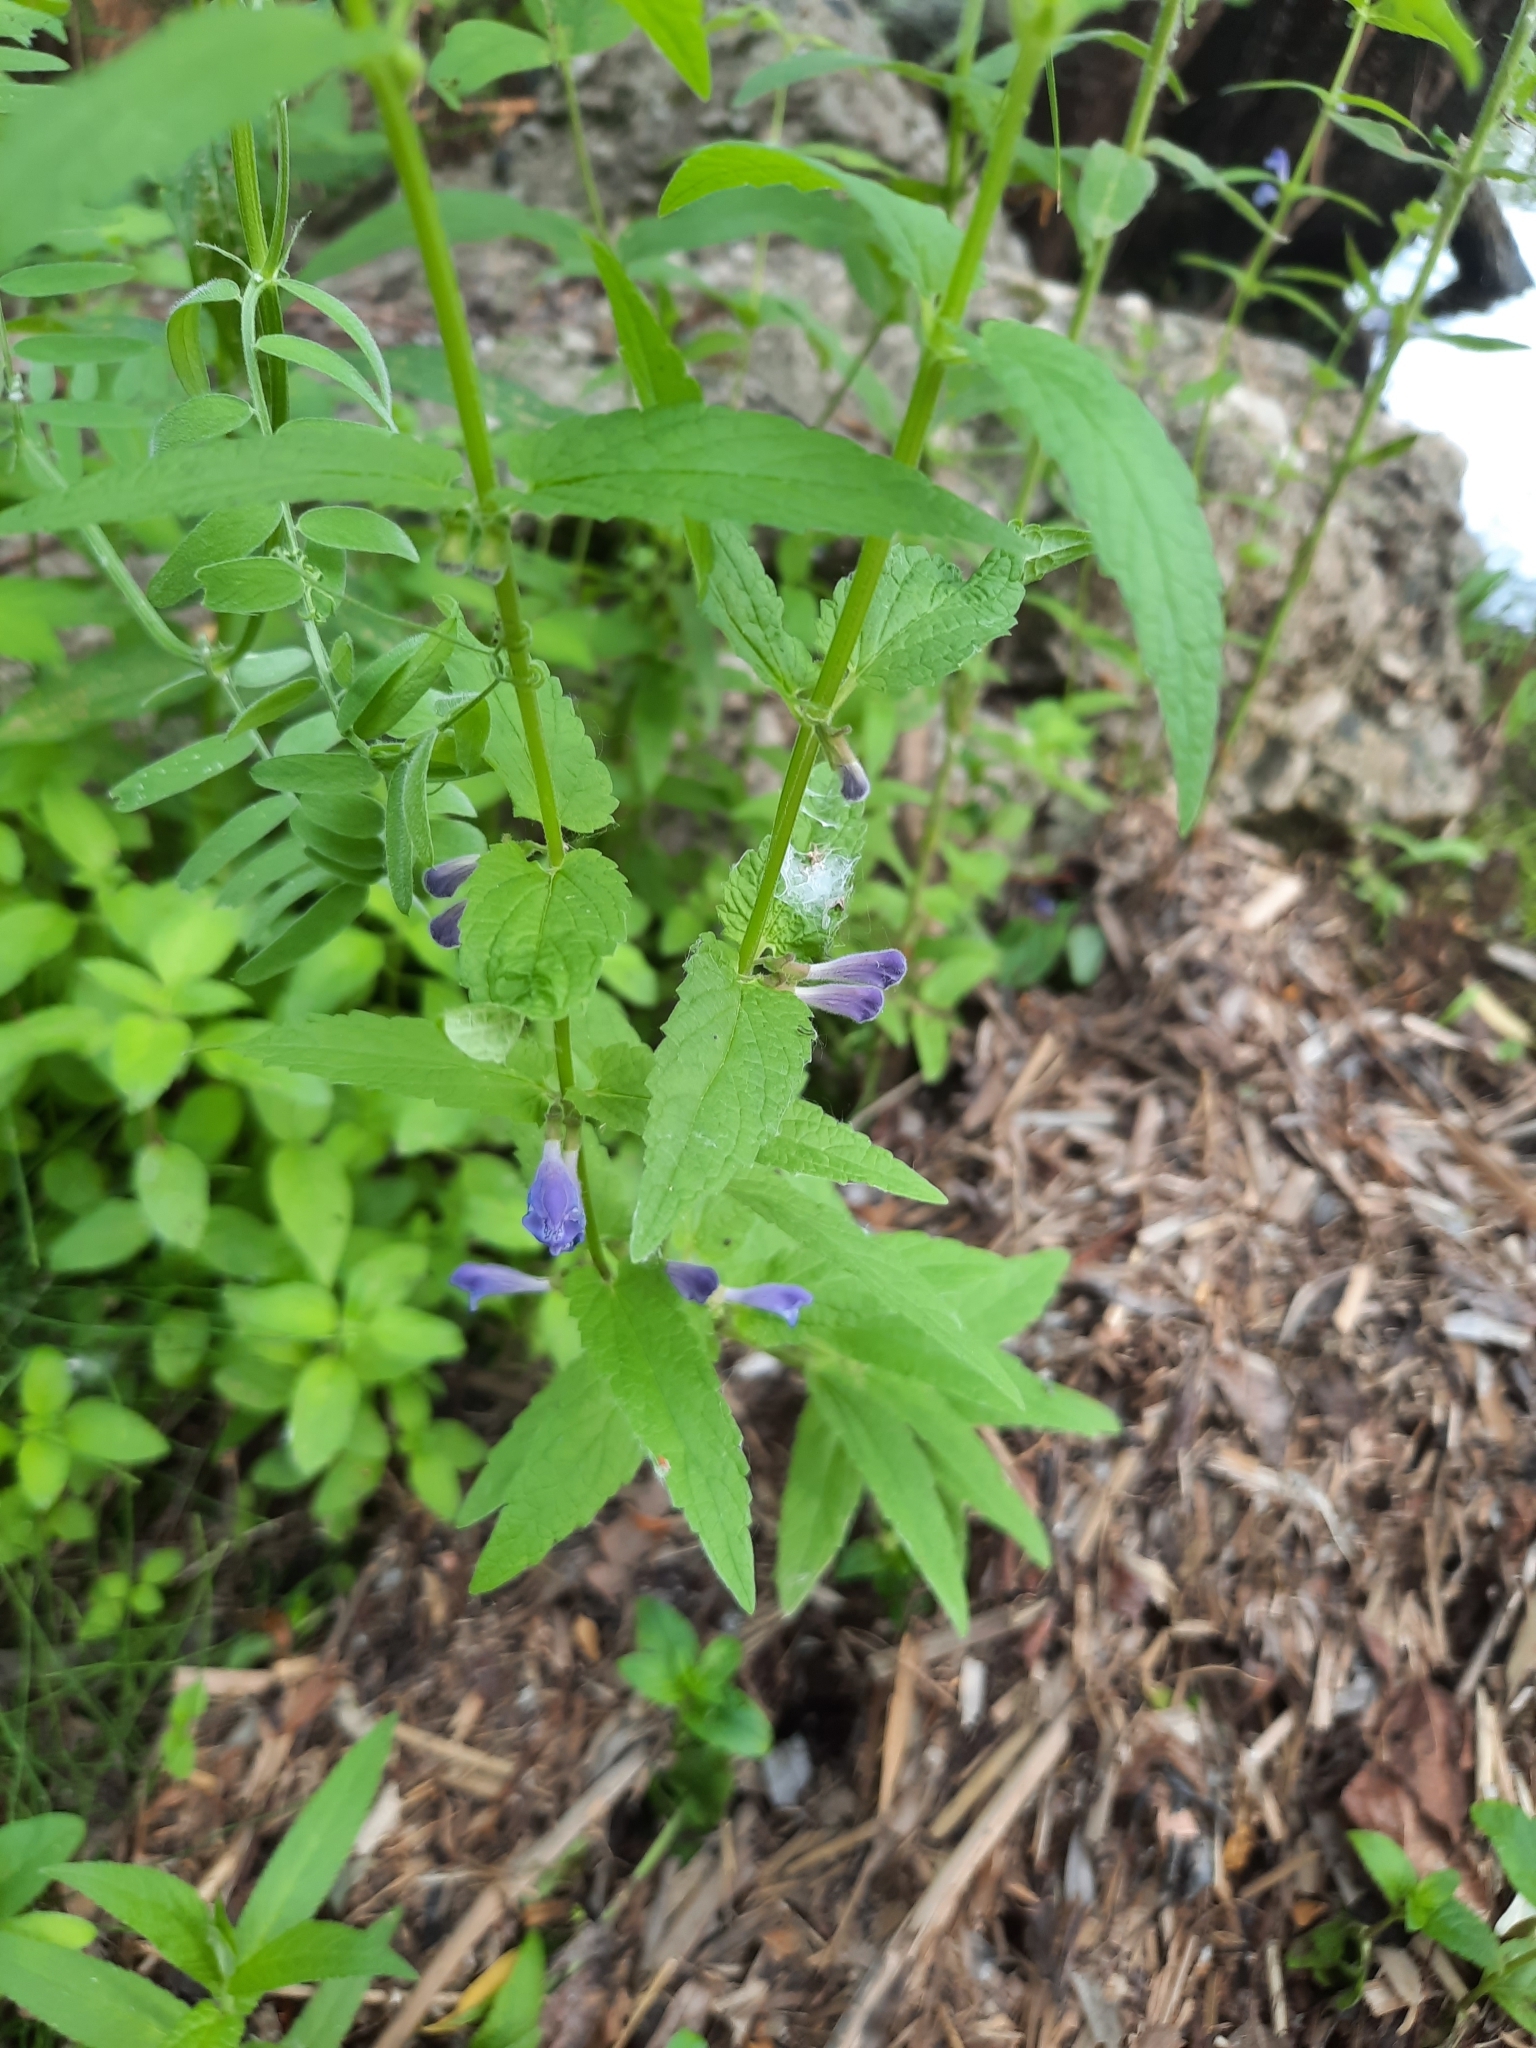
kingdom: Plantae
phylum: Tracheophyta
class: Magnoliopsida
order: Lamiales
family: Lamiaceae
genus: Scutellaria
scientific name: Scutellaria galericulata
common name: Skullcap
